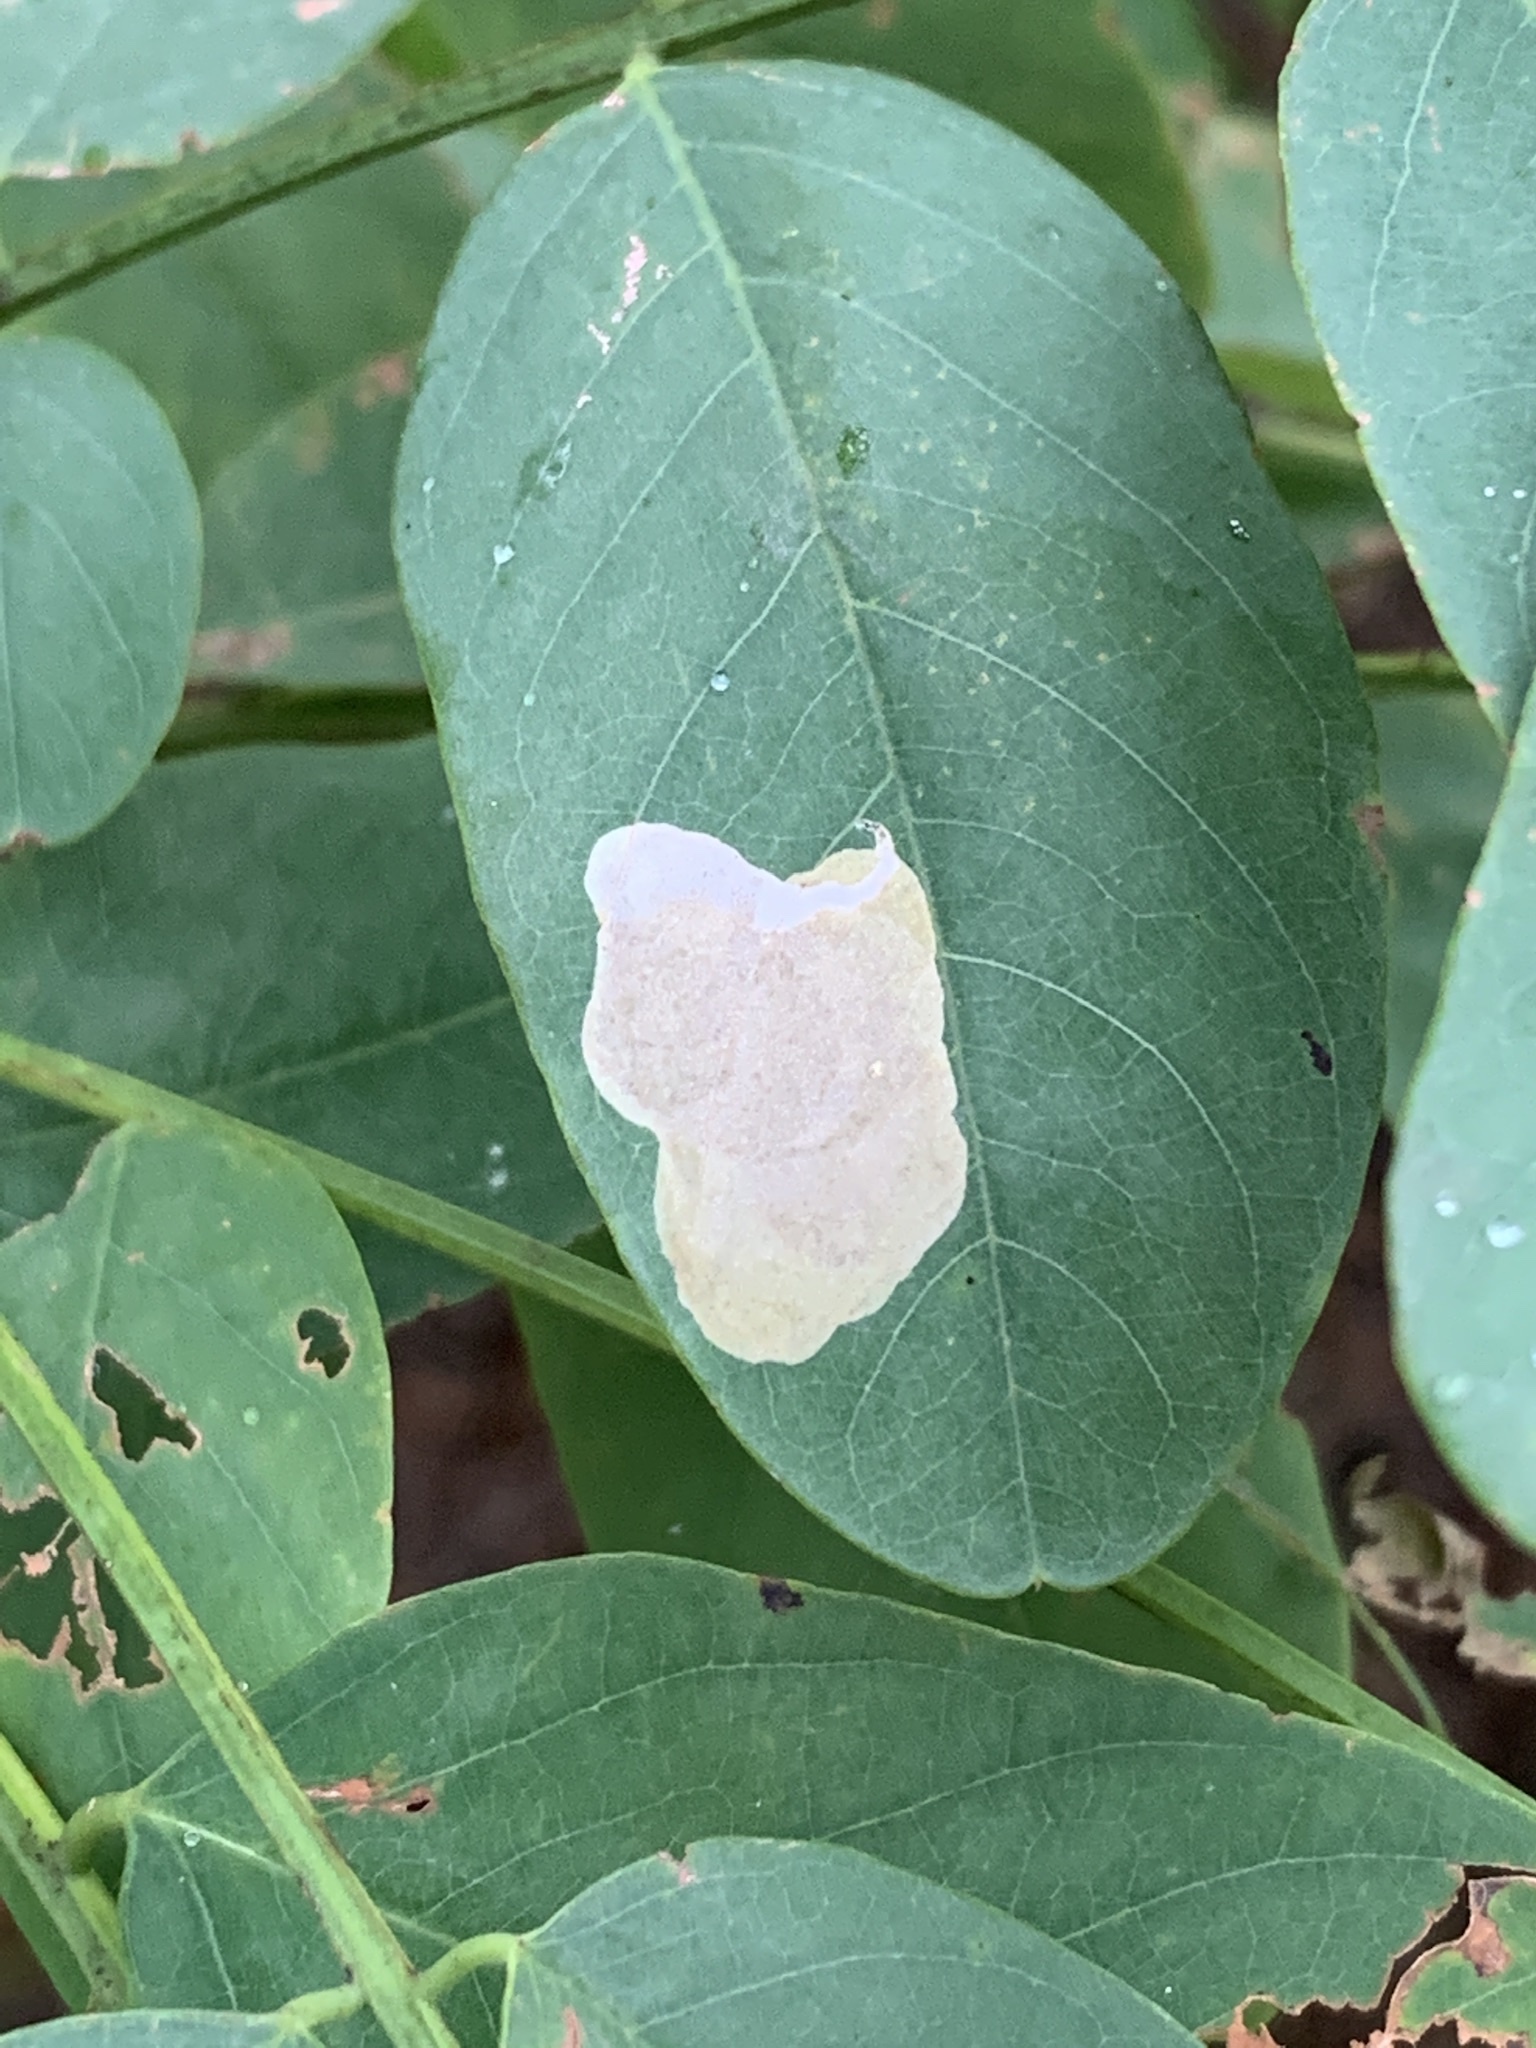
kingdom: Animalia
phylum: Arthropoda
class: Insecta
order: Lepidoptera
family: Gracillariidae
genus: Chrysaster
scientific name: Chrysaster ostensackenella
